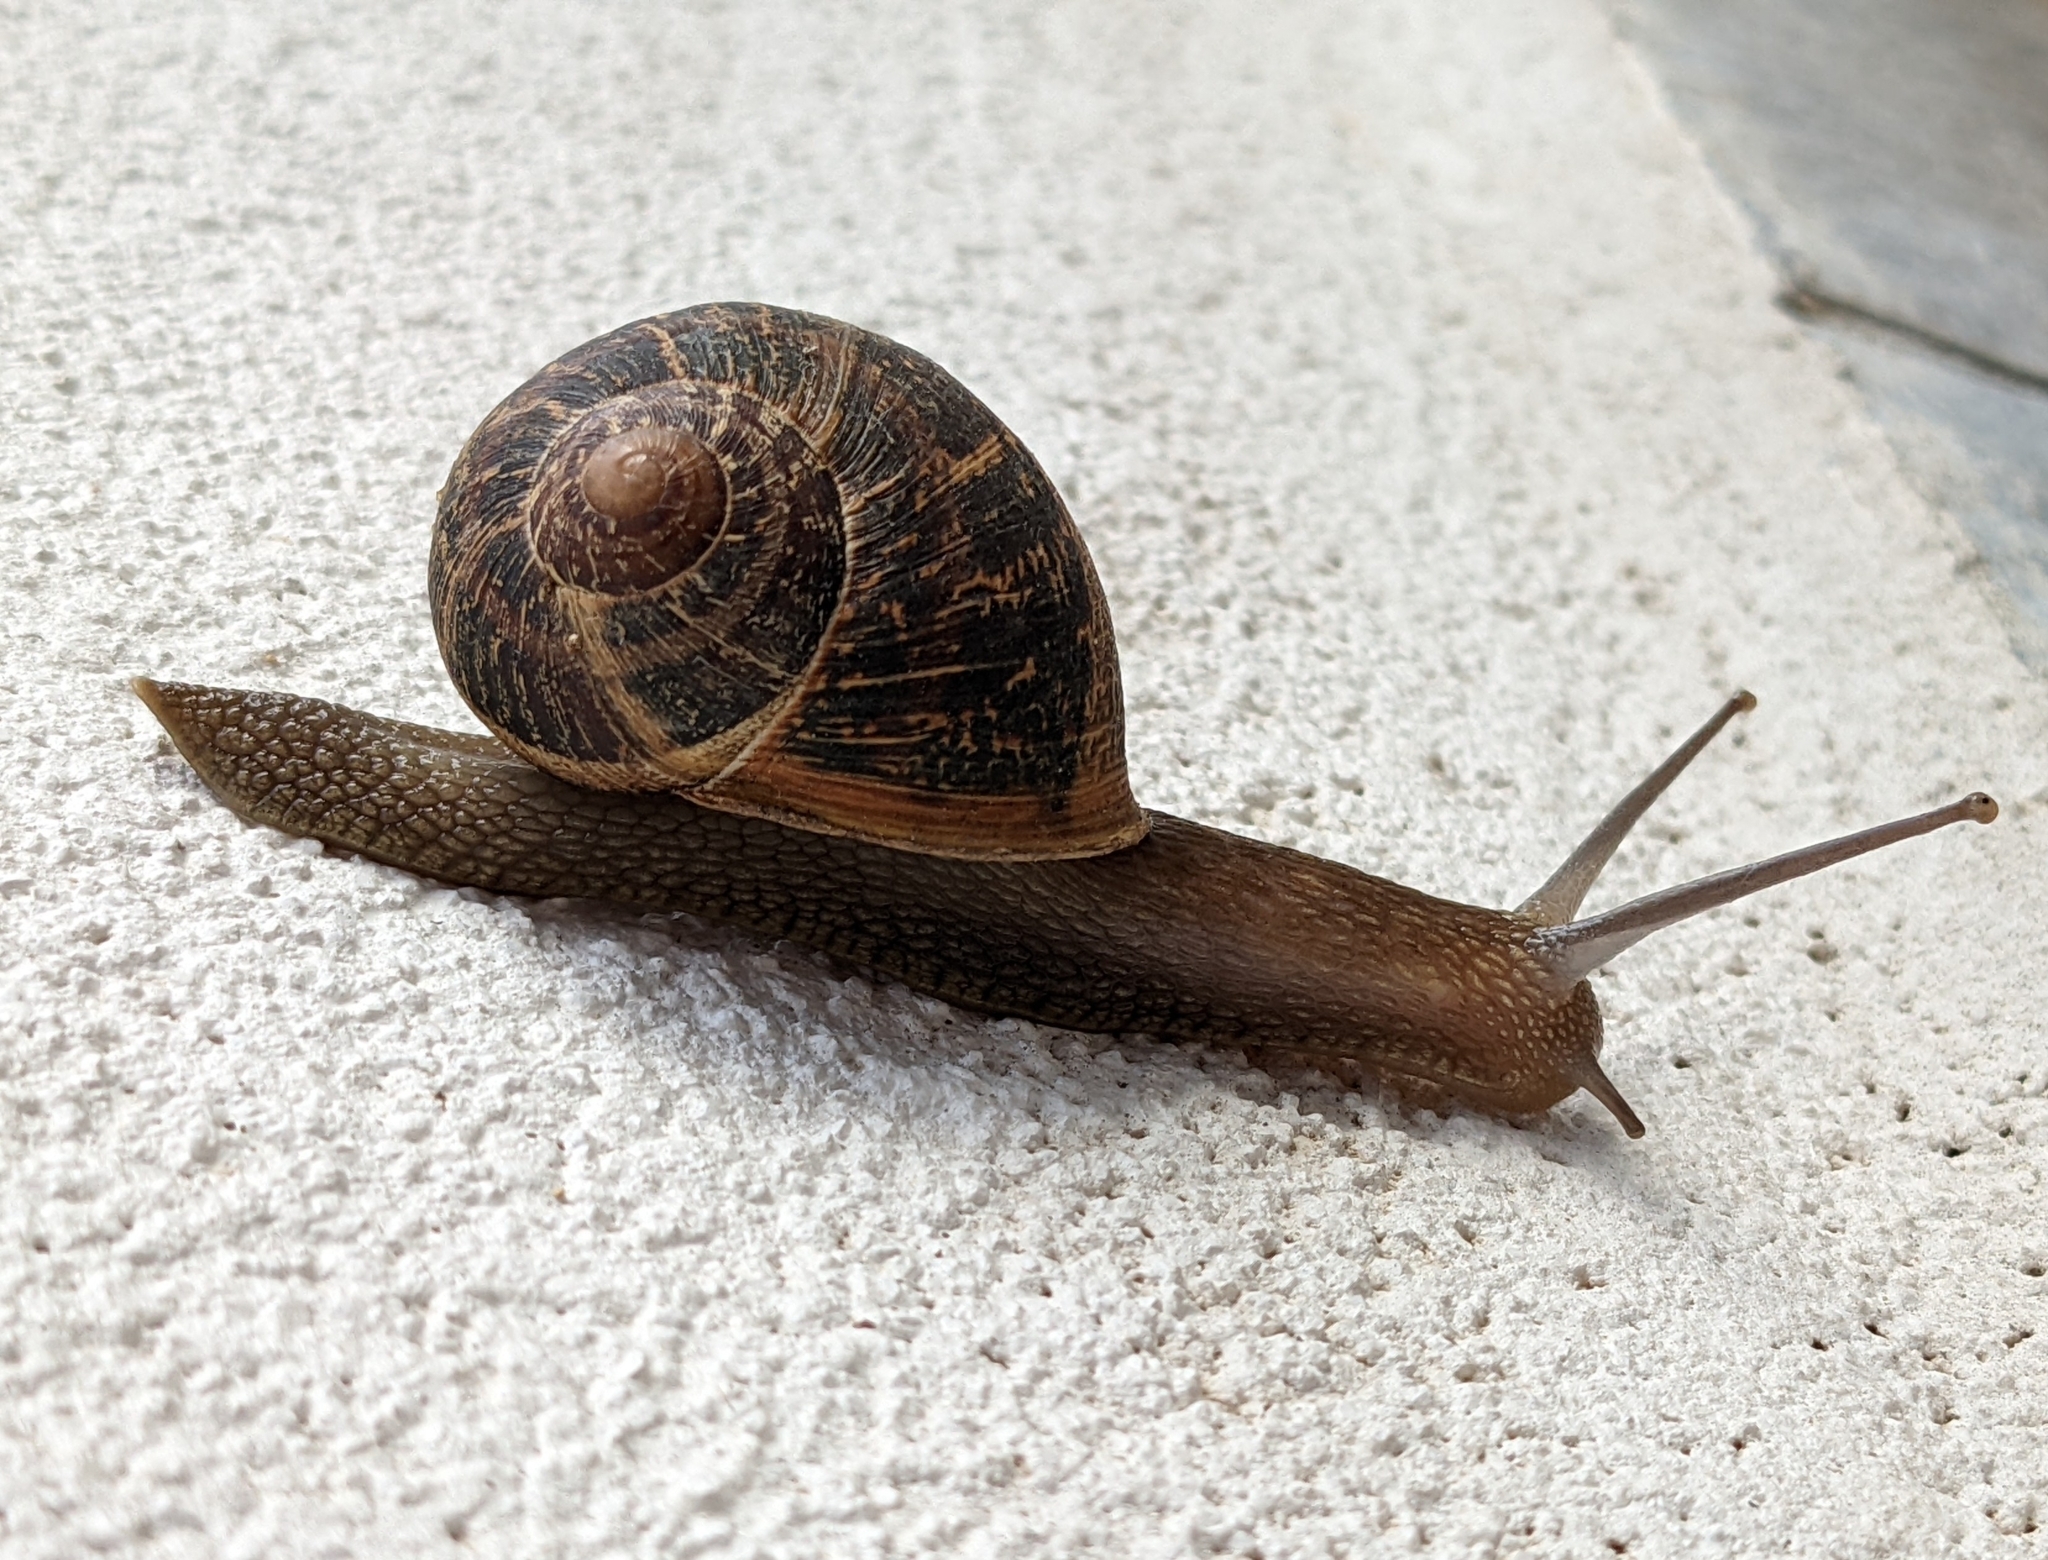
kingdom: Animalia
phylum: Mollusca
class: Gastropoda
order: Stylommatophora
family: Helicidae
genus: Cornu
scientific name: Cornu aspersum
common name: Brown garden snail
